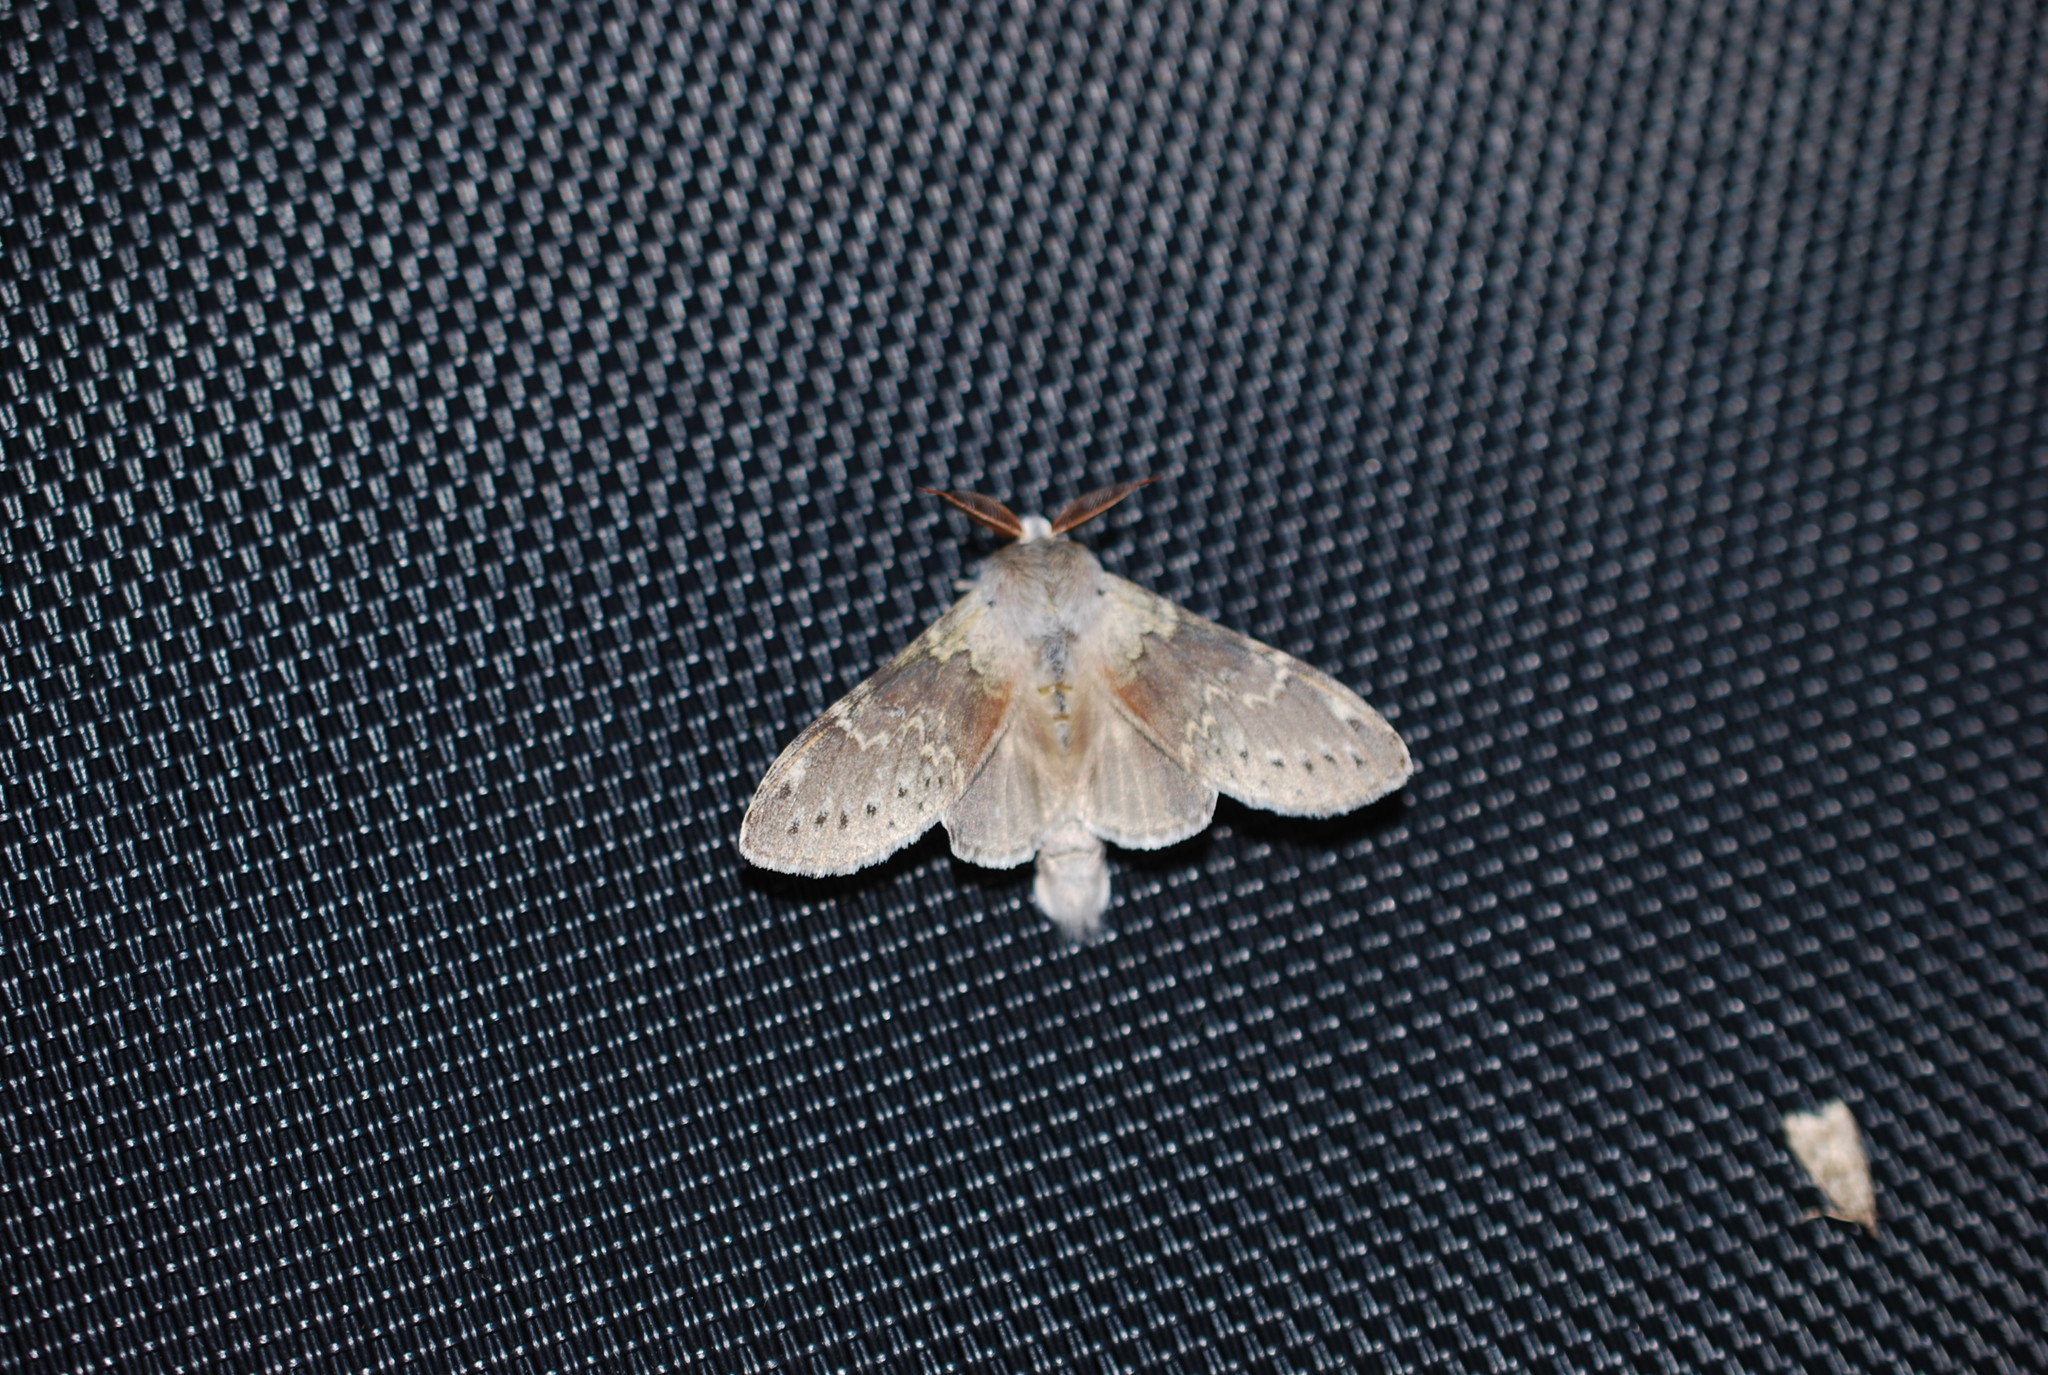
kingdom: Animalia
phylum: Arthropoda
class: Insecta
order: Lepidoptera
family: Notodontidae
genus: Stauropus
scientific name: Stauropus fagi
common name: Lobster moth
